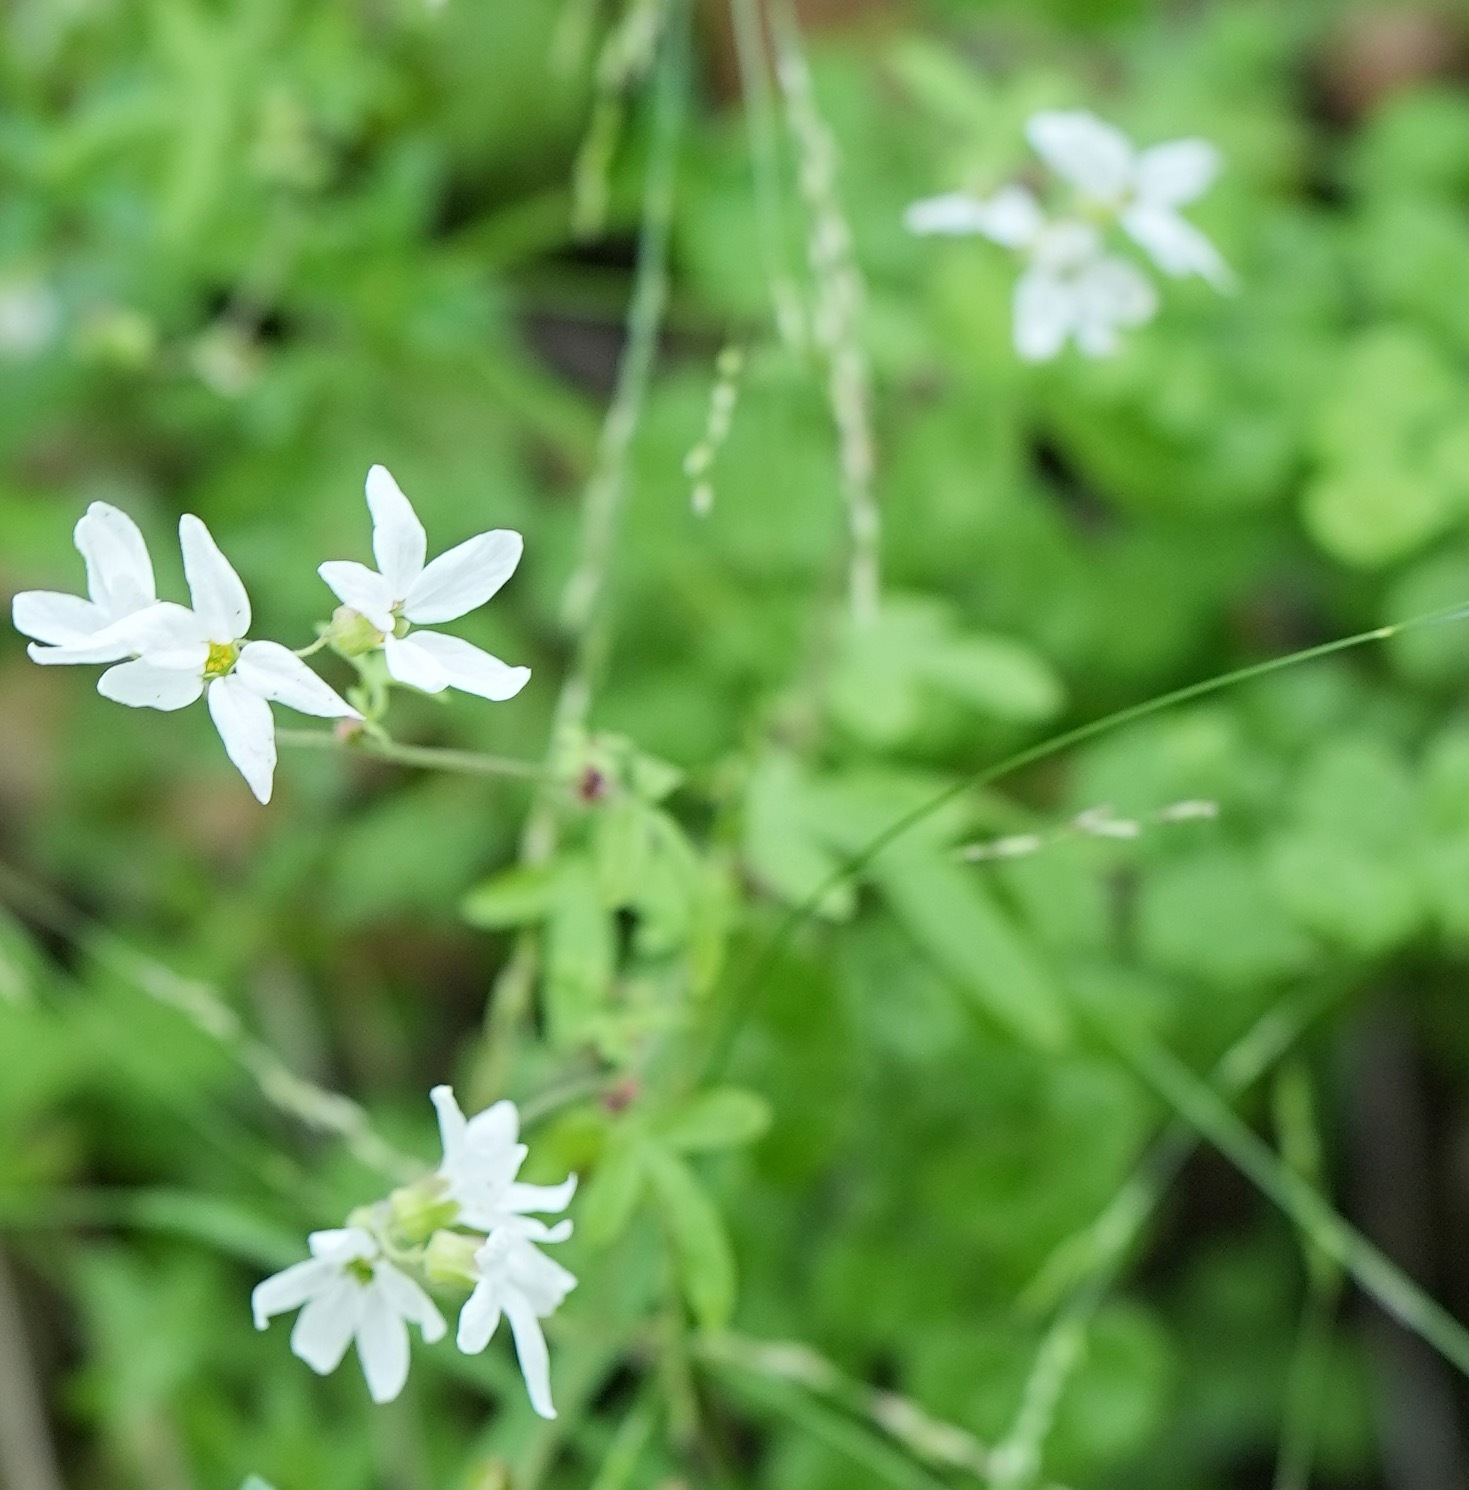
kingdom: Plantae
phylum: Tracheophyta
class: Magnoliopsida
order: Saxifragales
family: Saxifragaceae
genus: Lithophragma
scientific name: Lithophragma heterophyllum
